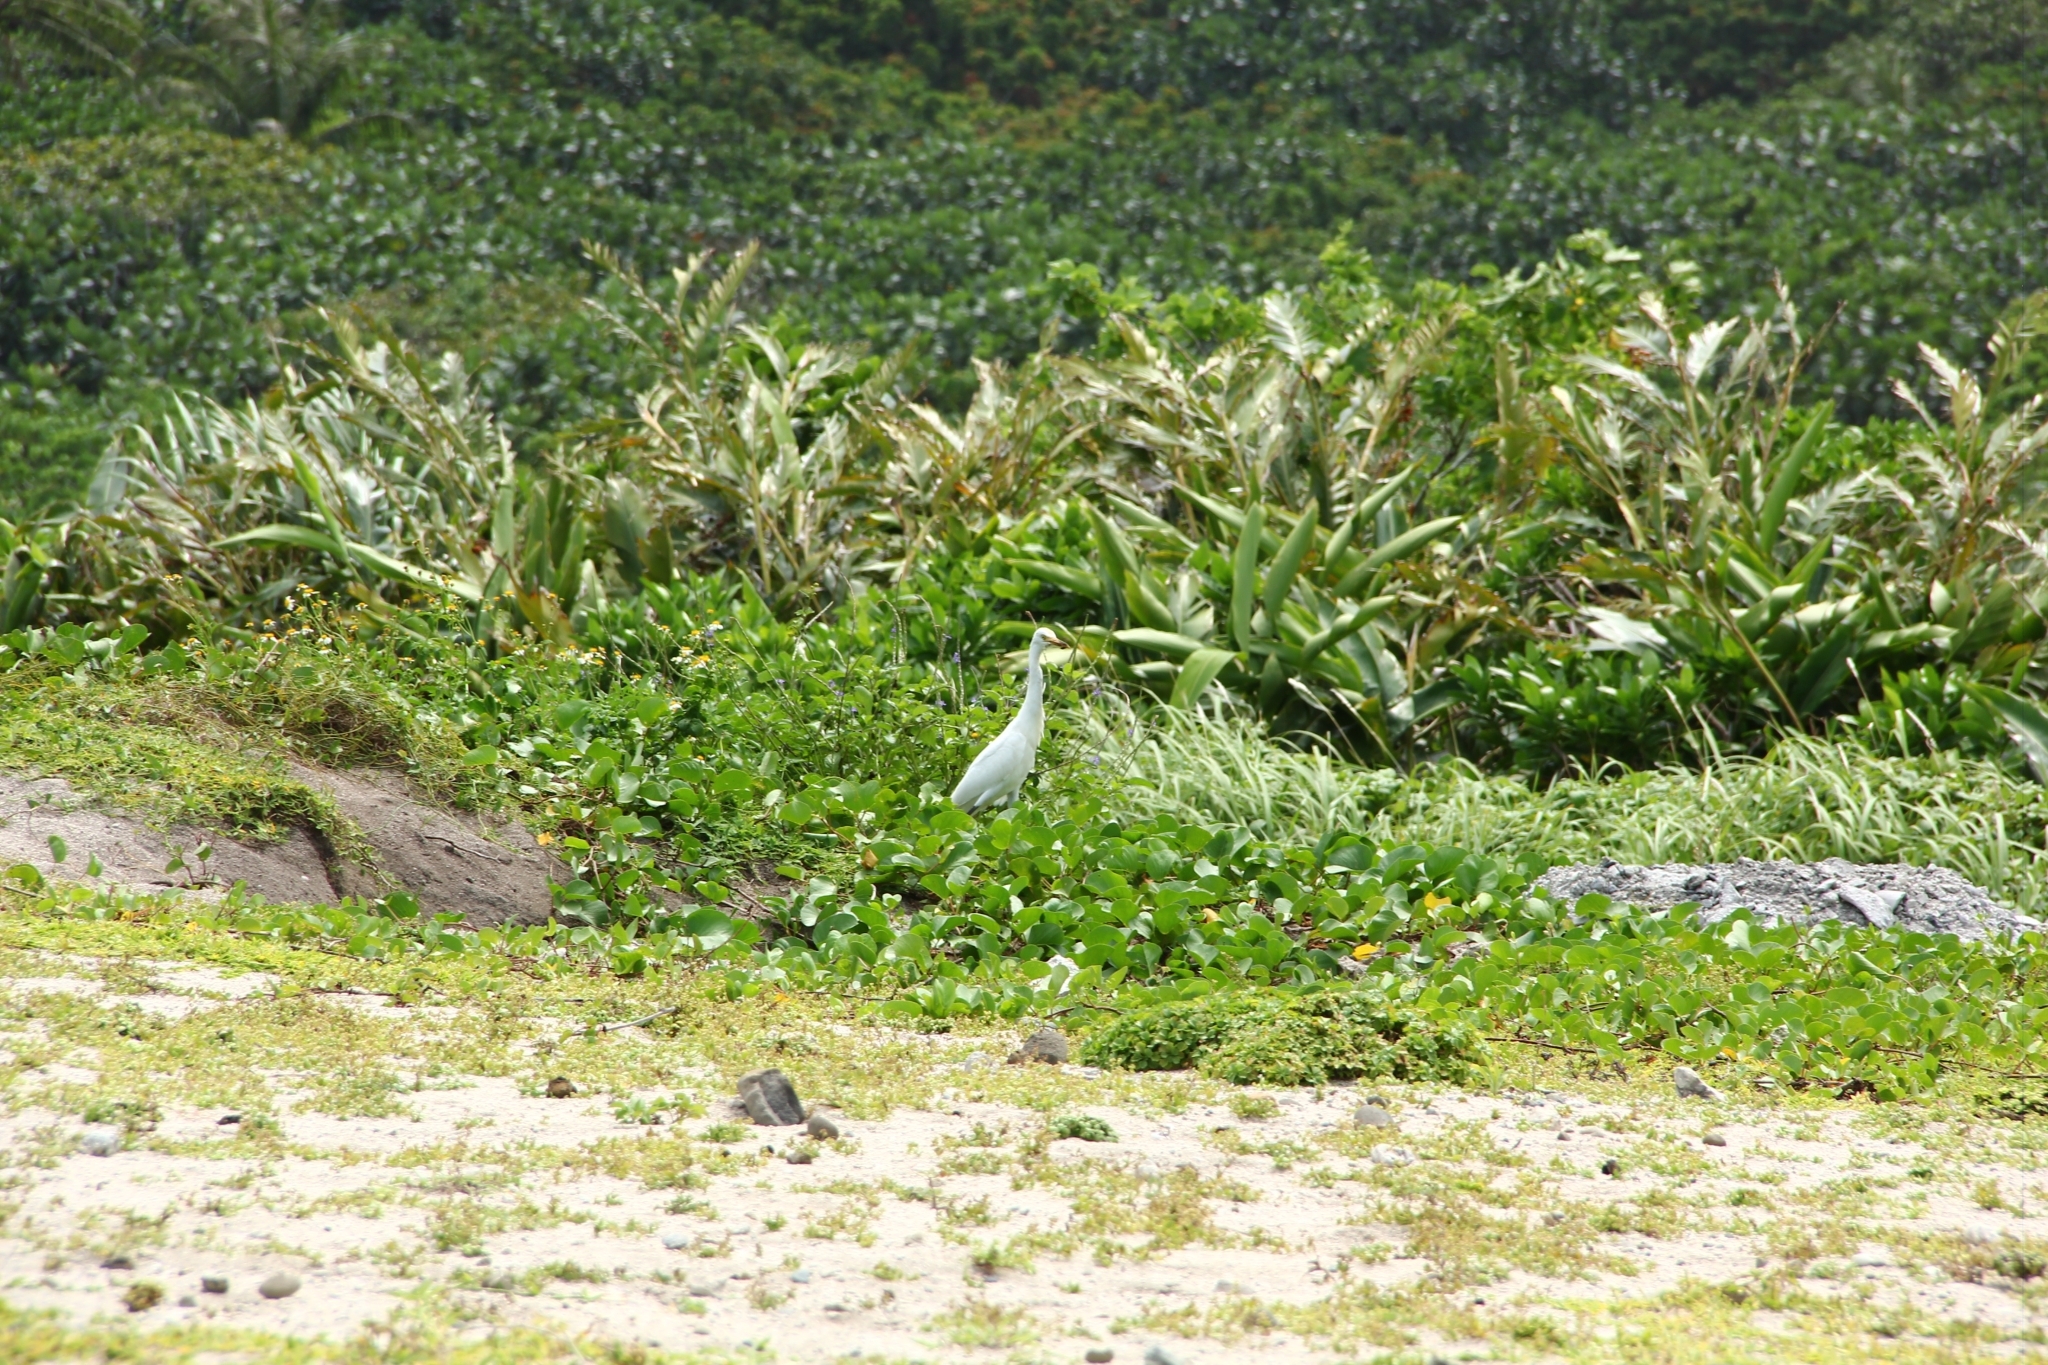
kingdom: Animalia
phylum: Chordata
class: Aves
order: Pelecaniformes
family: Ardeidae
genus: Bubulcus
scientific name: Bubulcus coromandus
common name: Eastern cattle egret
